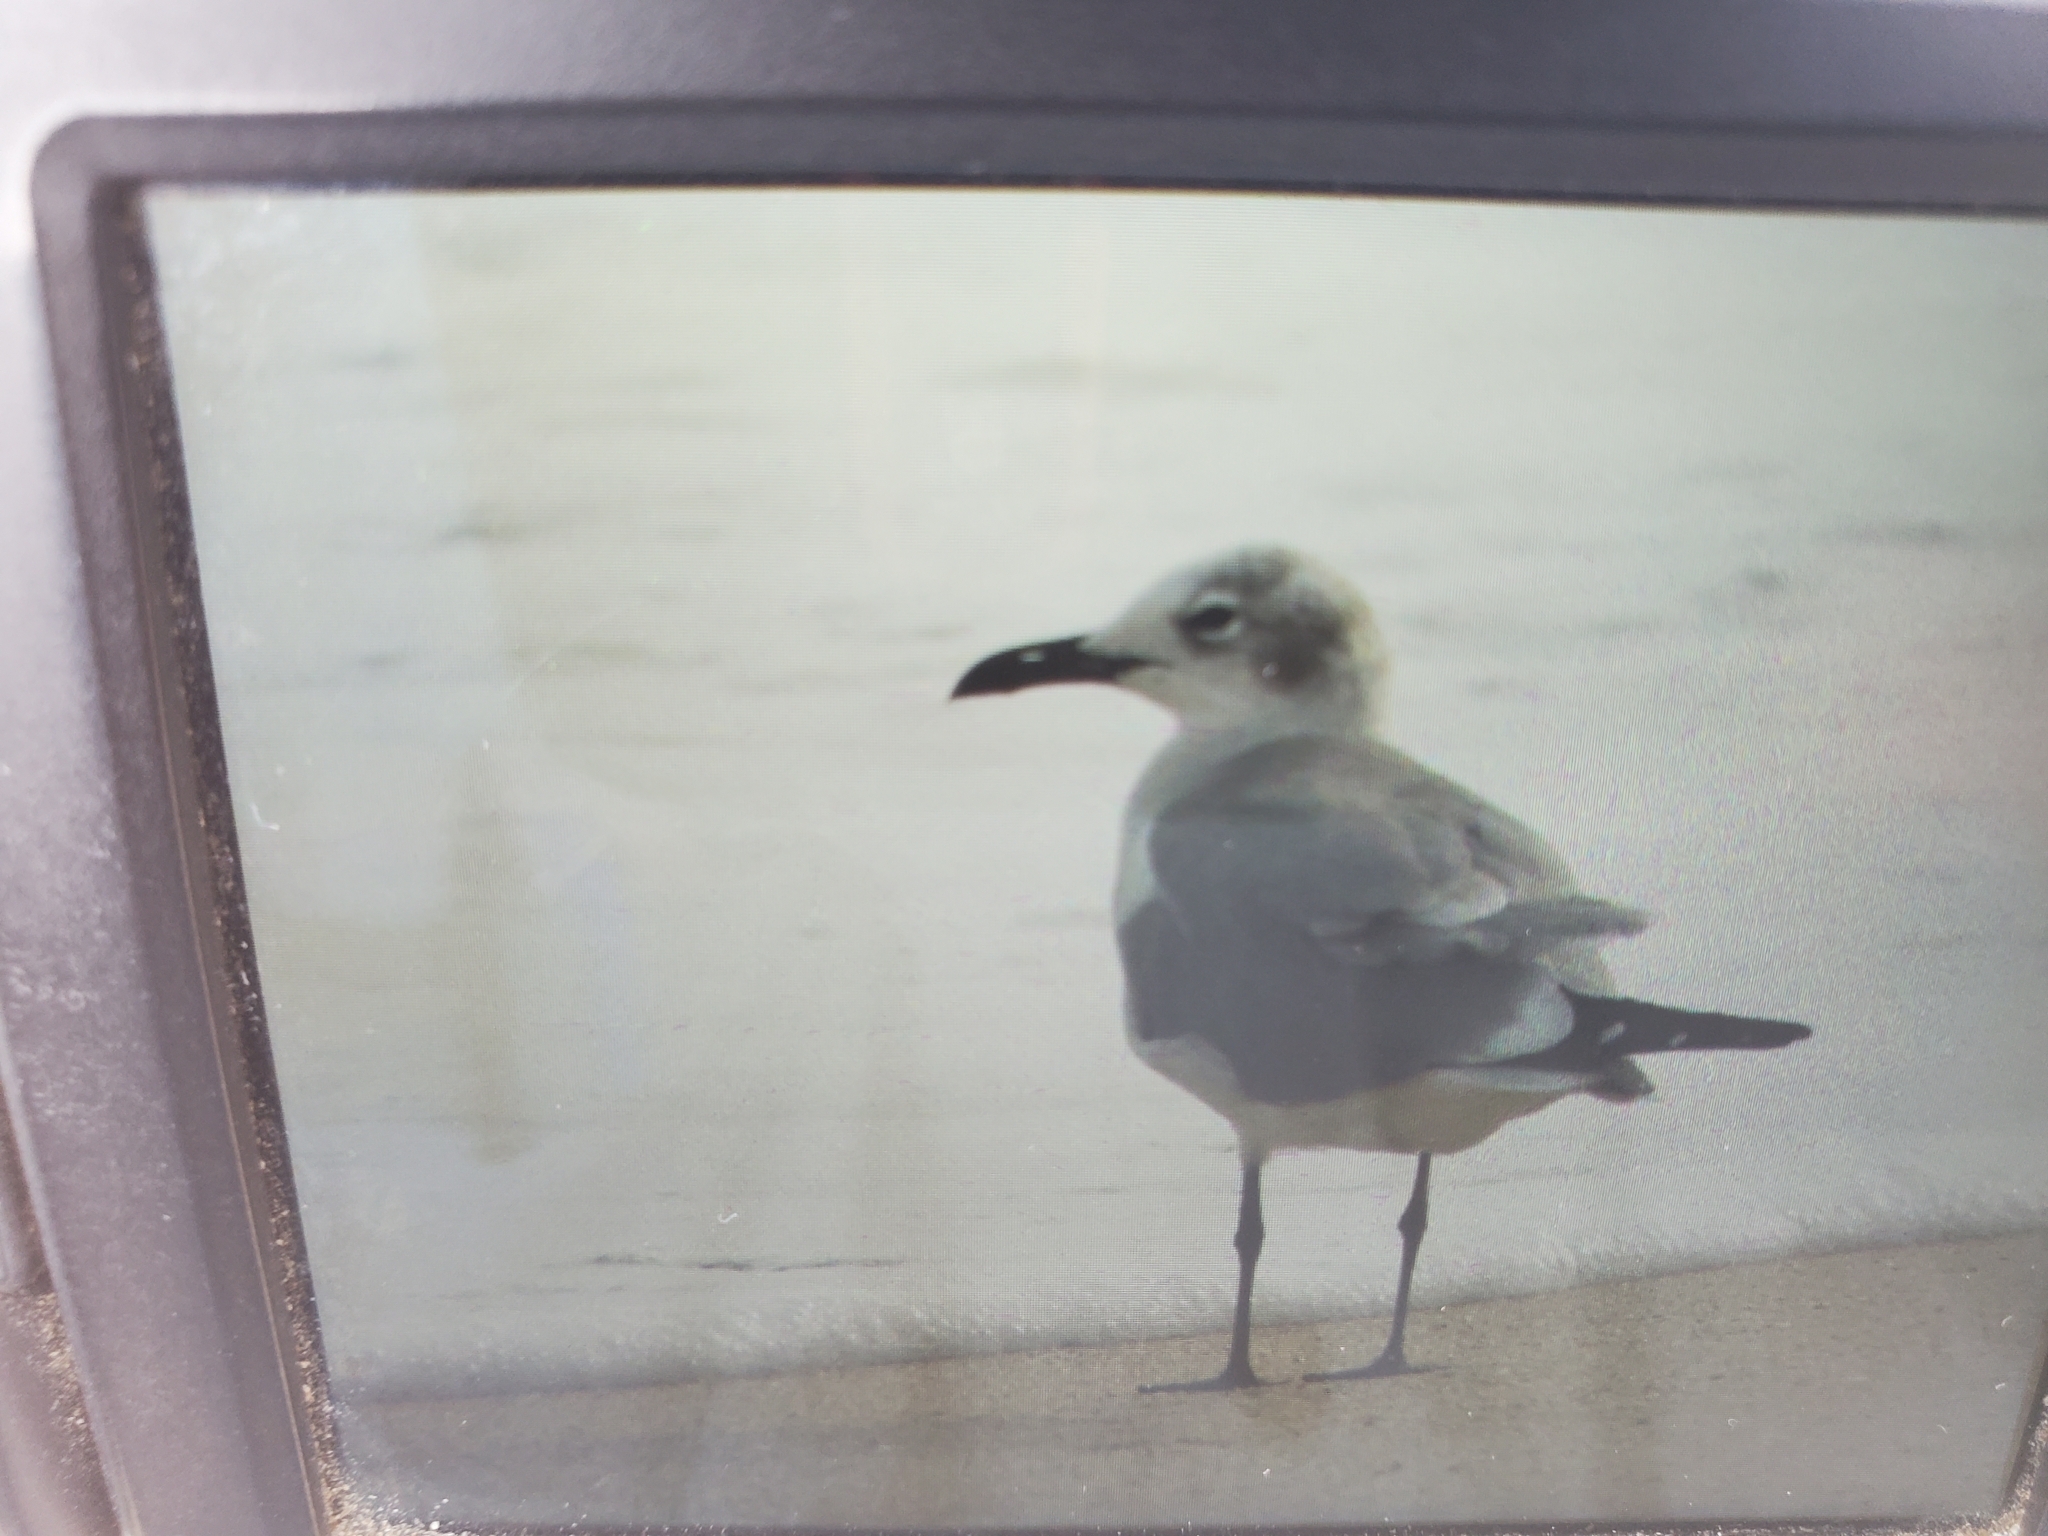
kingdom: Animalia
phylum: Chordata
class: Aves
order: Charadriiformes
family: Laridae
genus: Leucophaeus
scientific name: Leucophaeus atricilla
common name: Laughing gull
